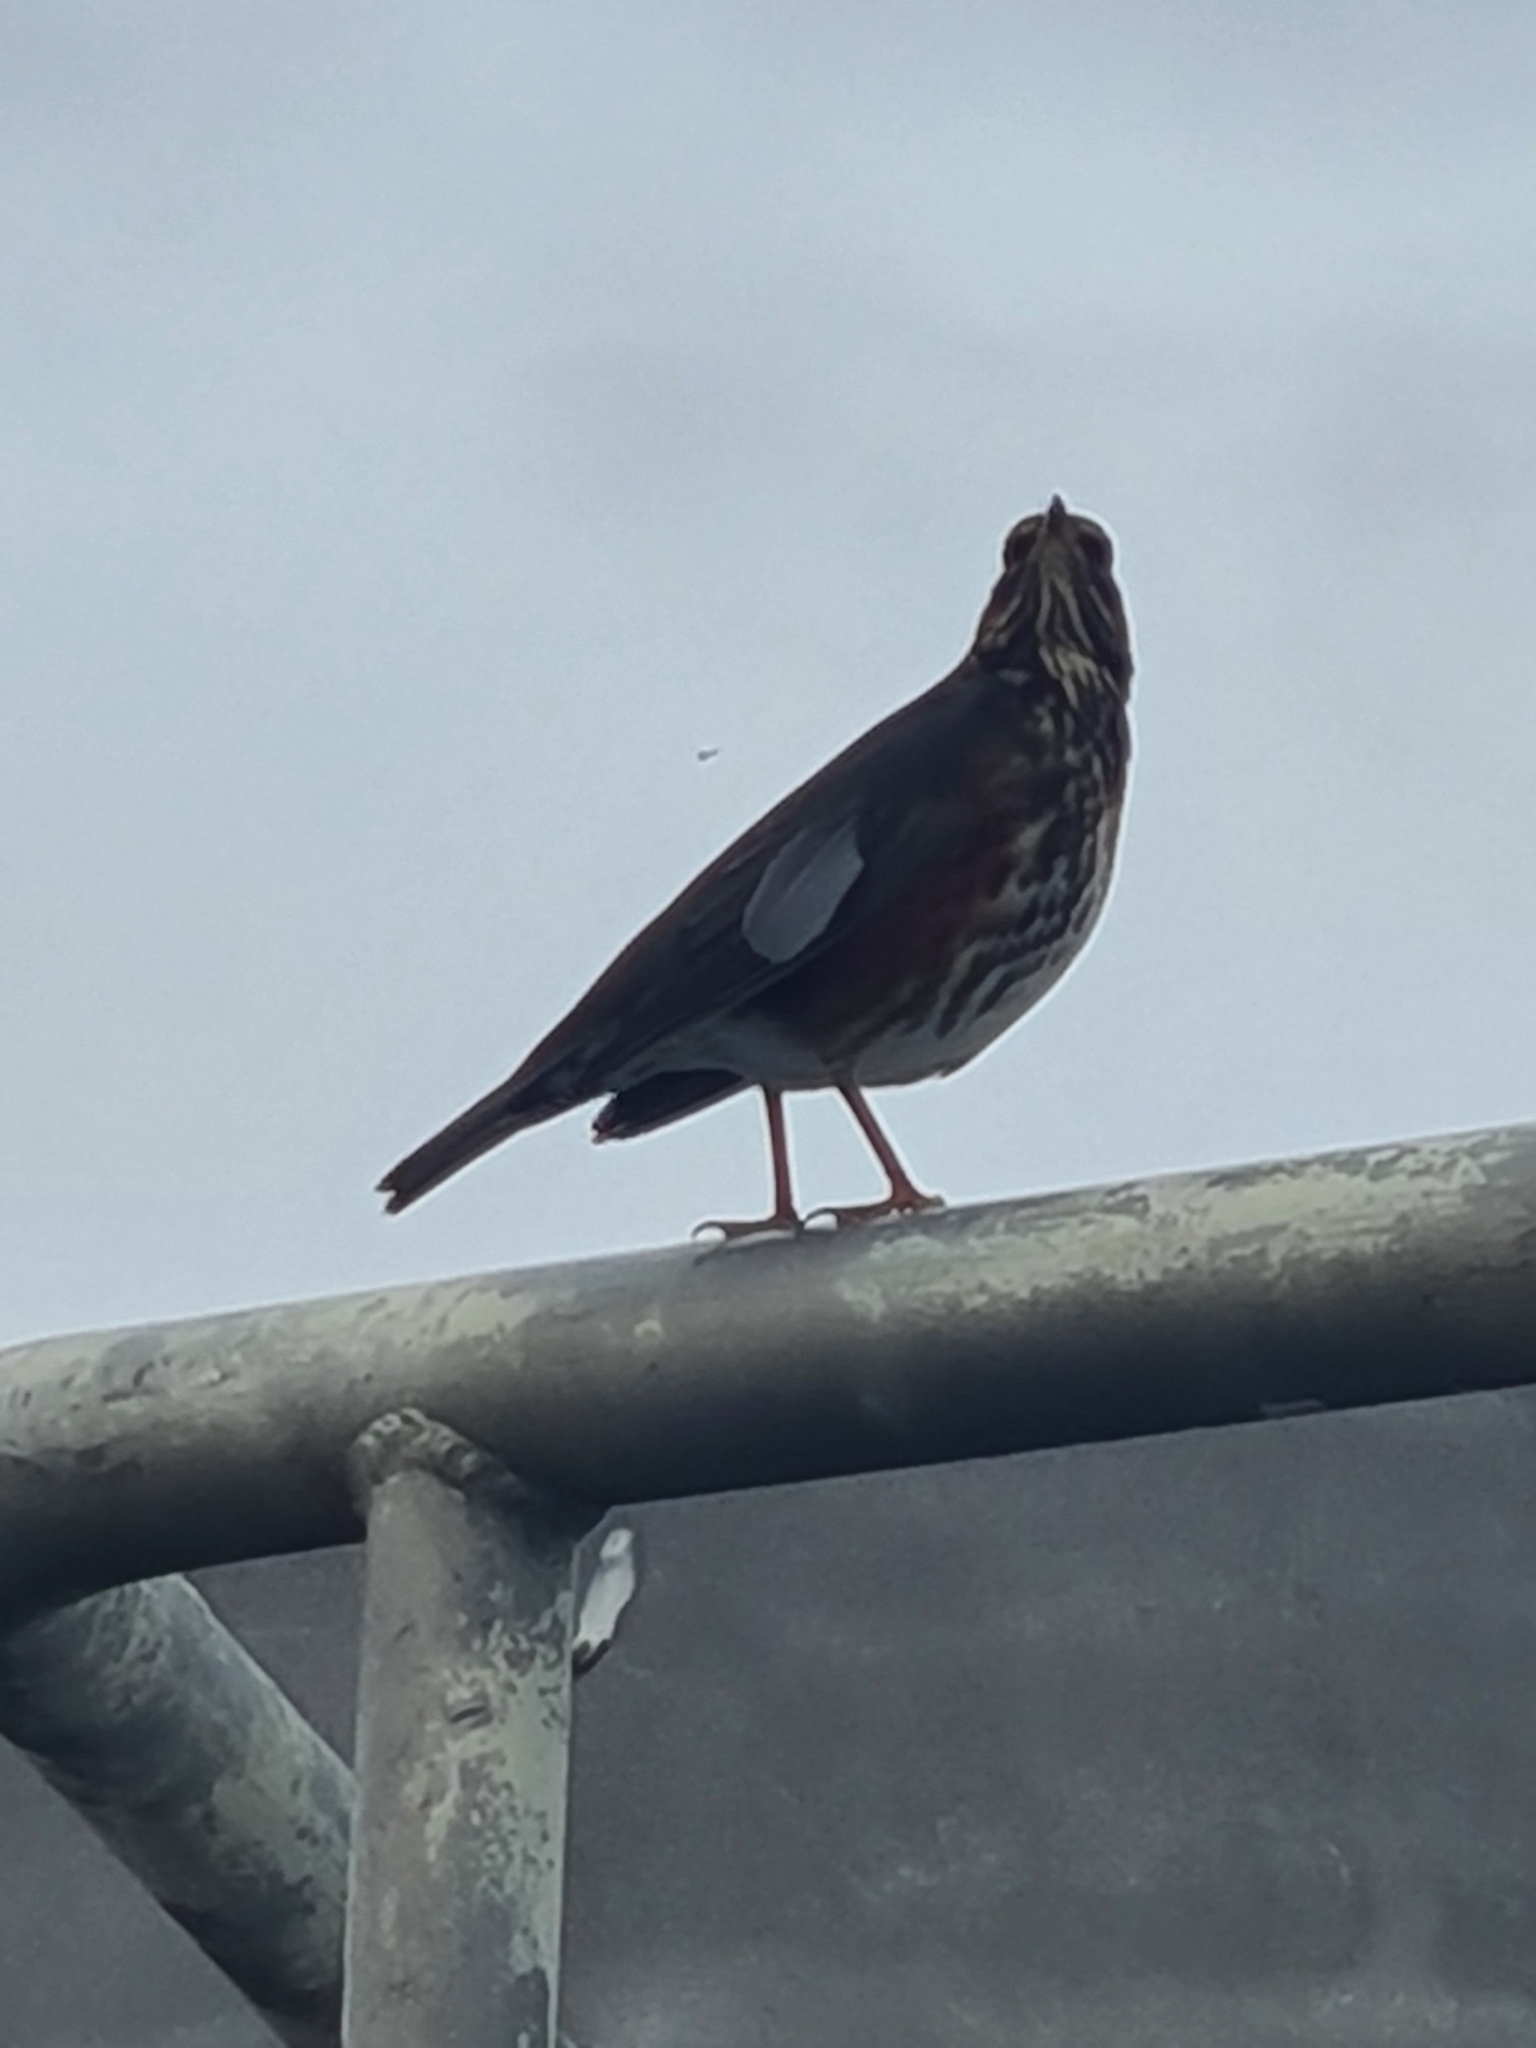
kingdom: Animalia
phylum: Chordata
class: Aves
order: Passeriformes
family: Turdidae
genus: Turdus
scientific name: Turdus iliacus
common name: Redwing
